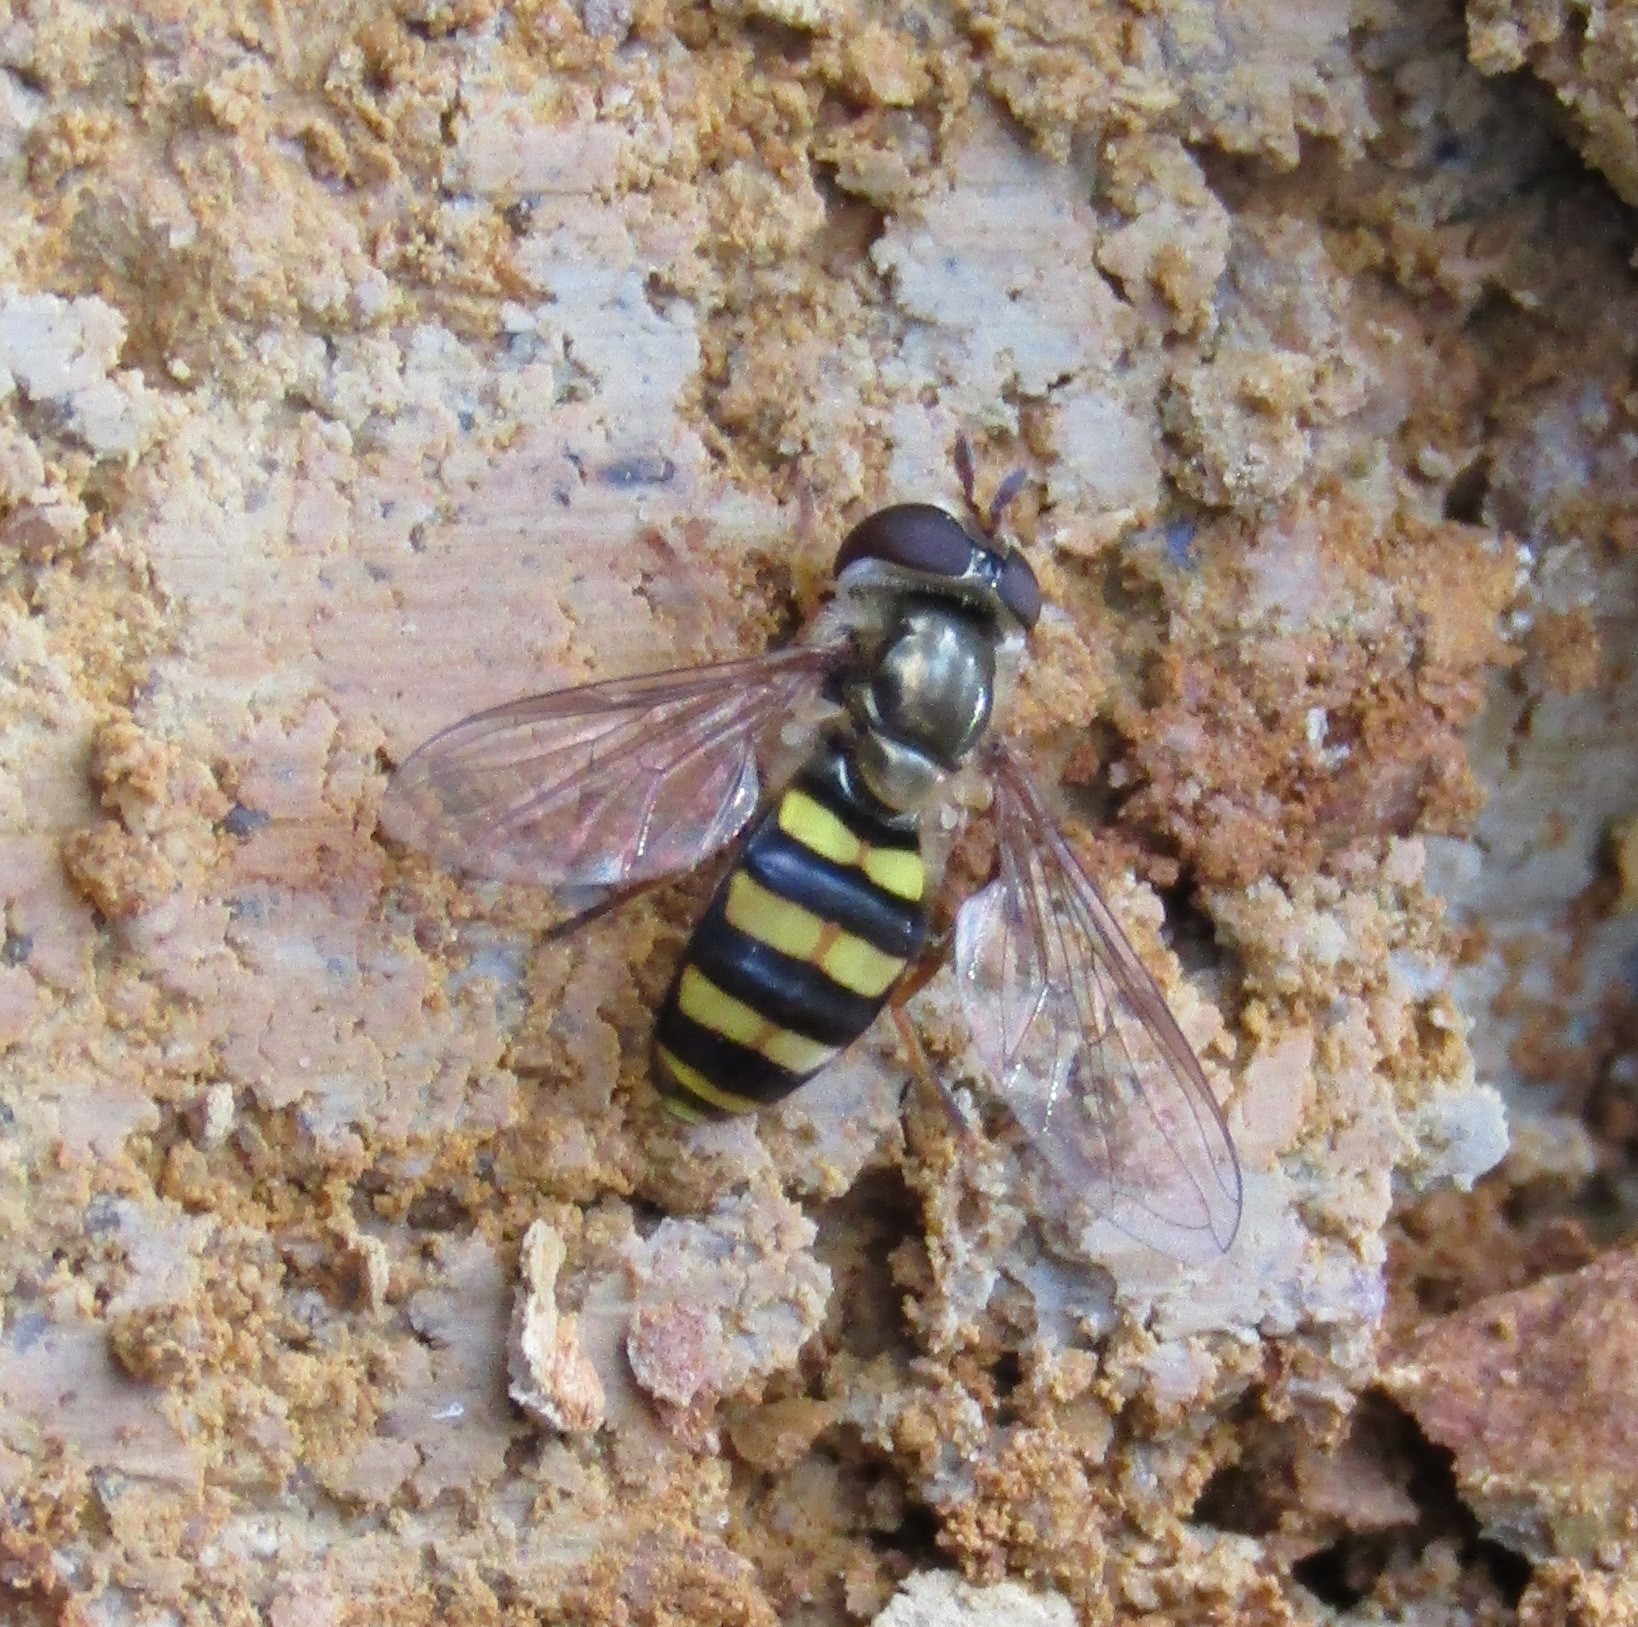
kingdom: Animalia
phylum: Arthropoda
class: Insecta
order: Diptera
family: Syrphidae
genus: Eupeodes
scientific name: Eupeodes
